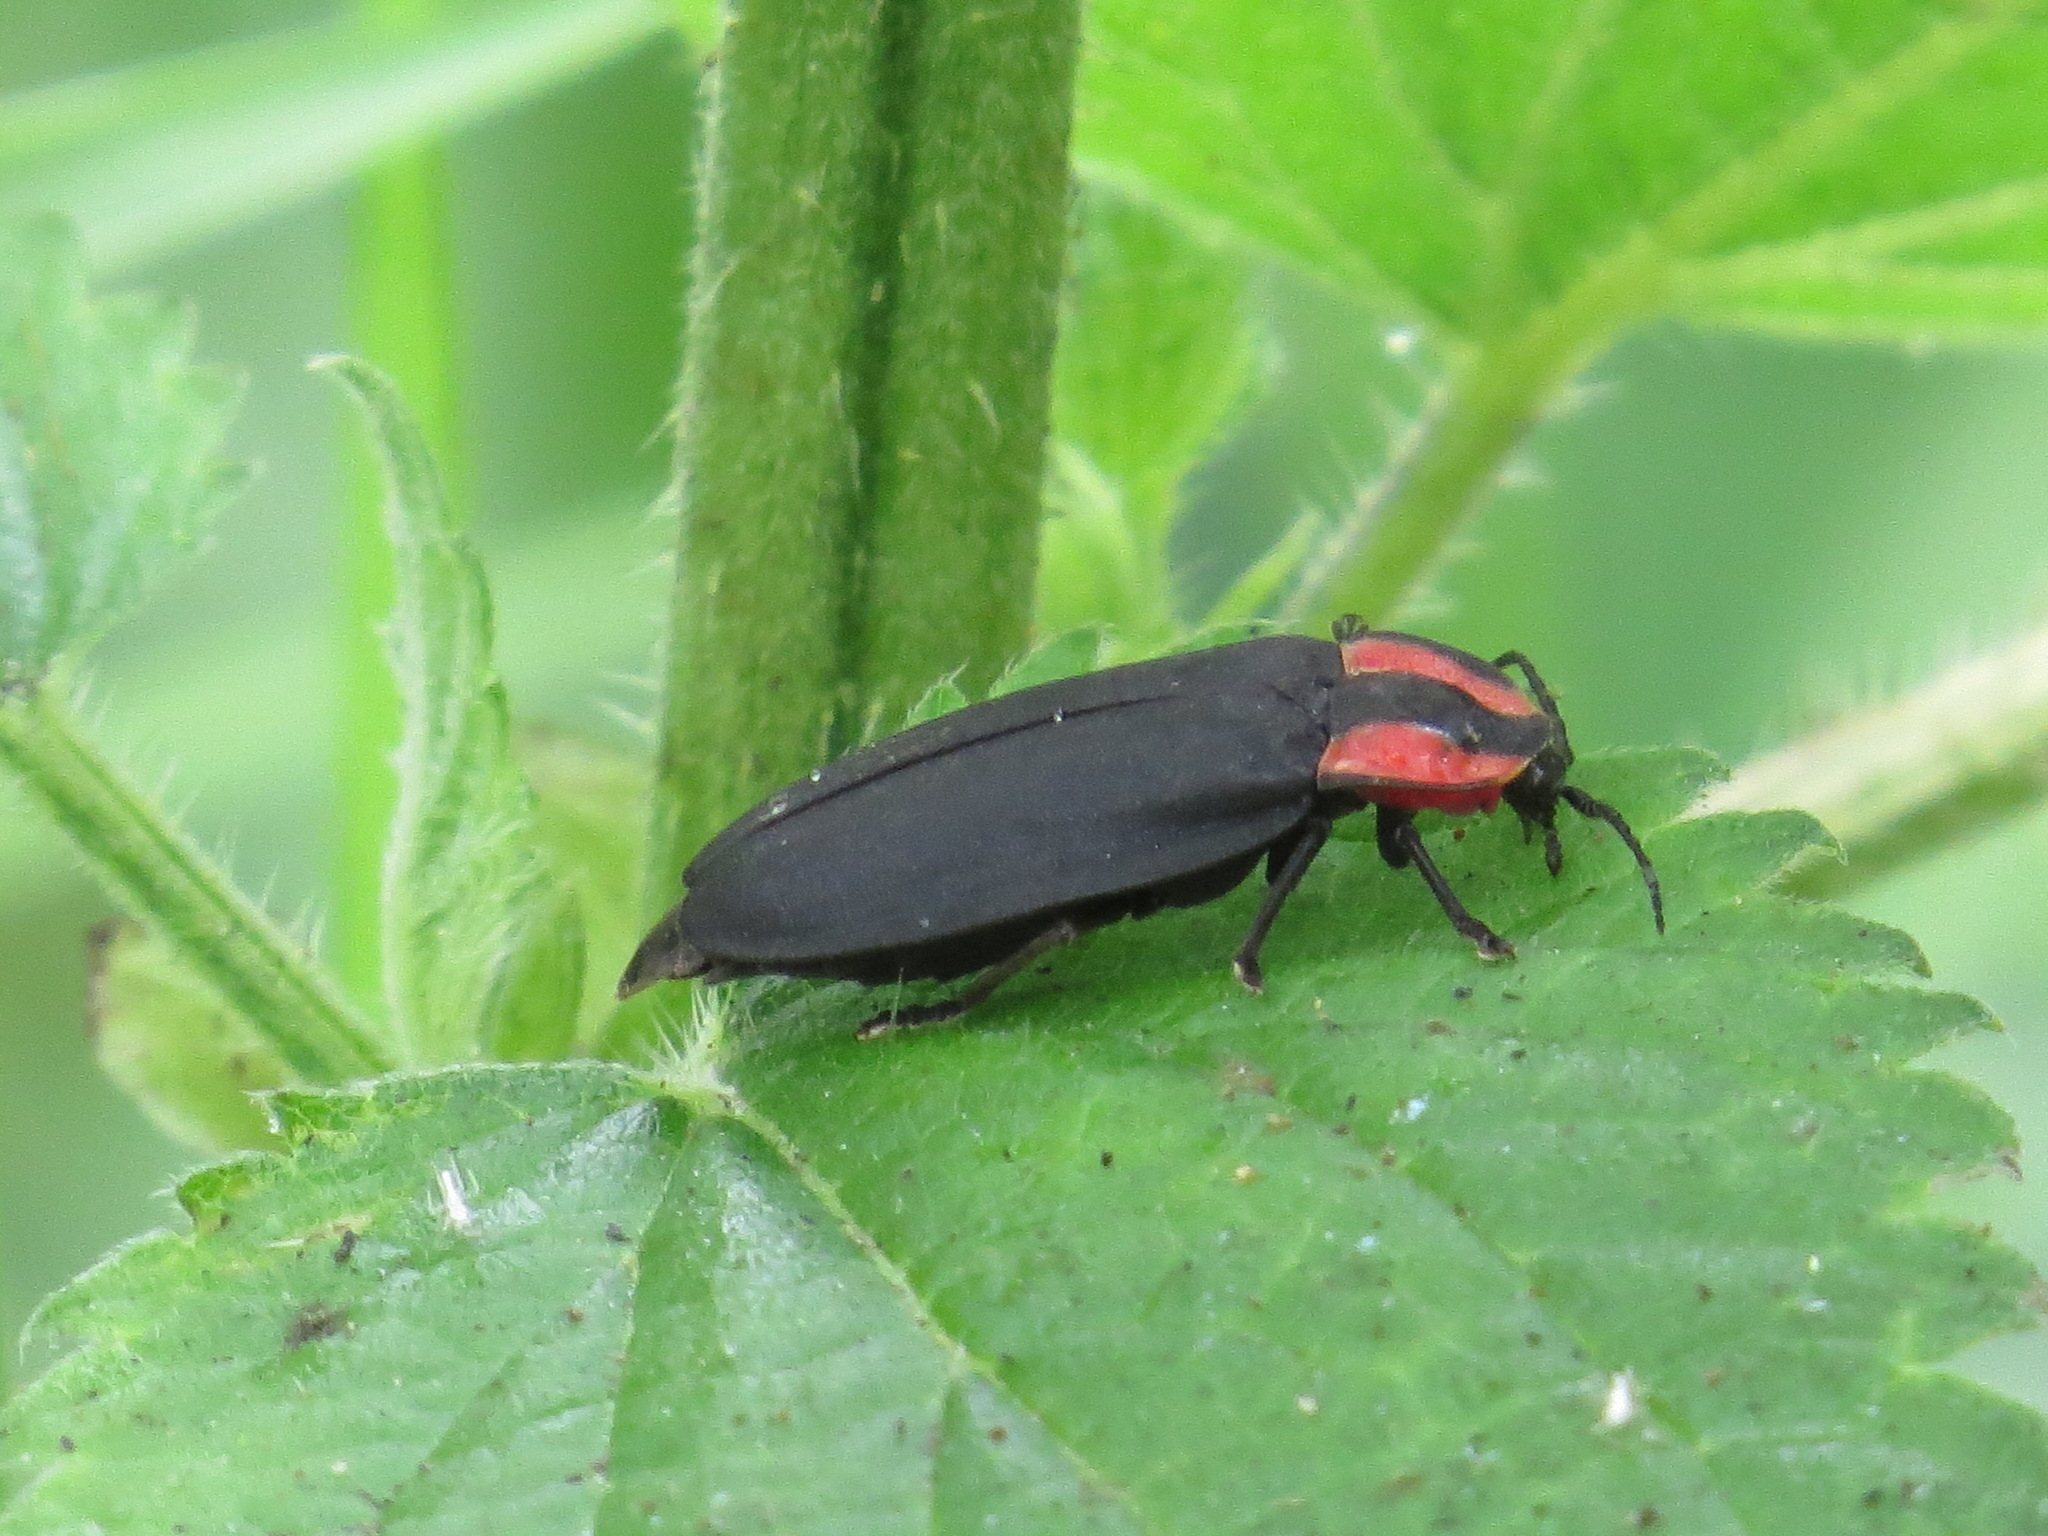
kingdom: Animalia
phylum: Arthropoda
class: Insecta
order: Coleoptera
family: Lampyridae
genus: Ellychnia
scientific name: Ellychnia megista
